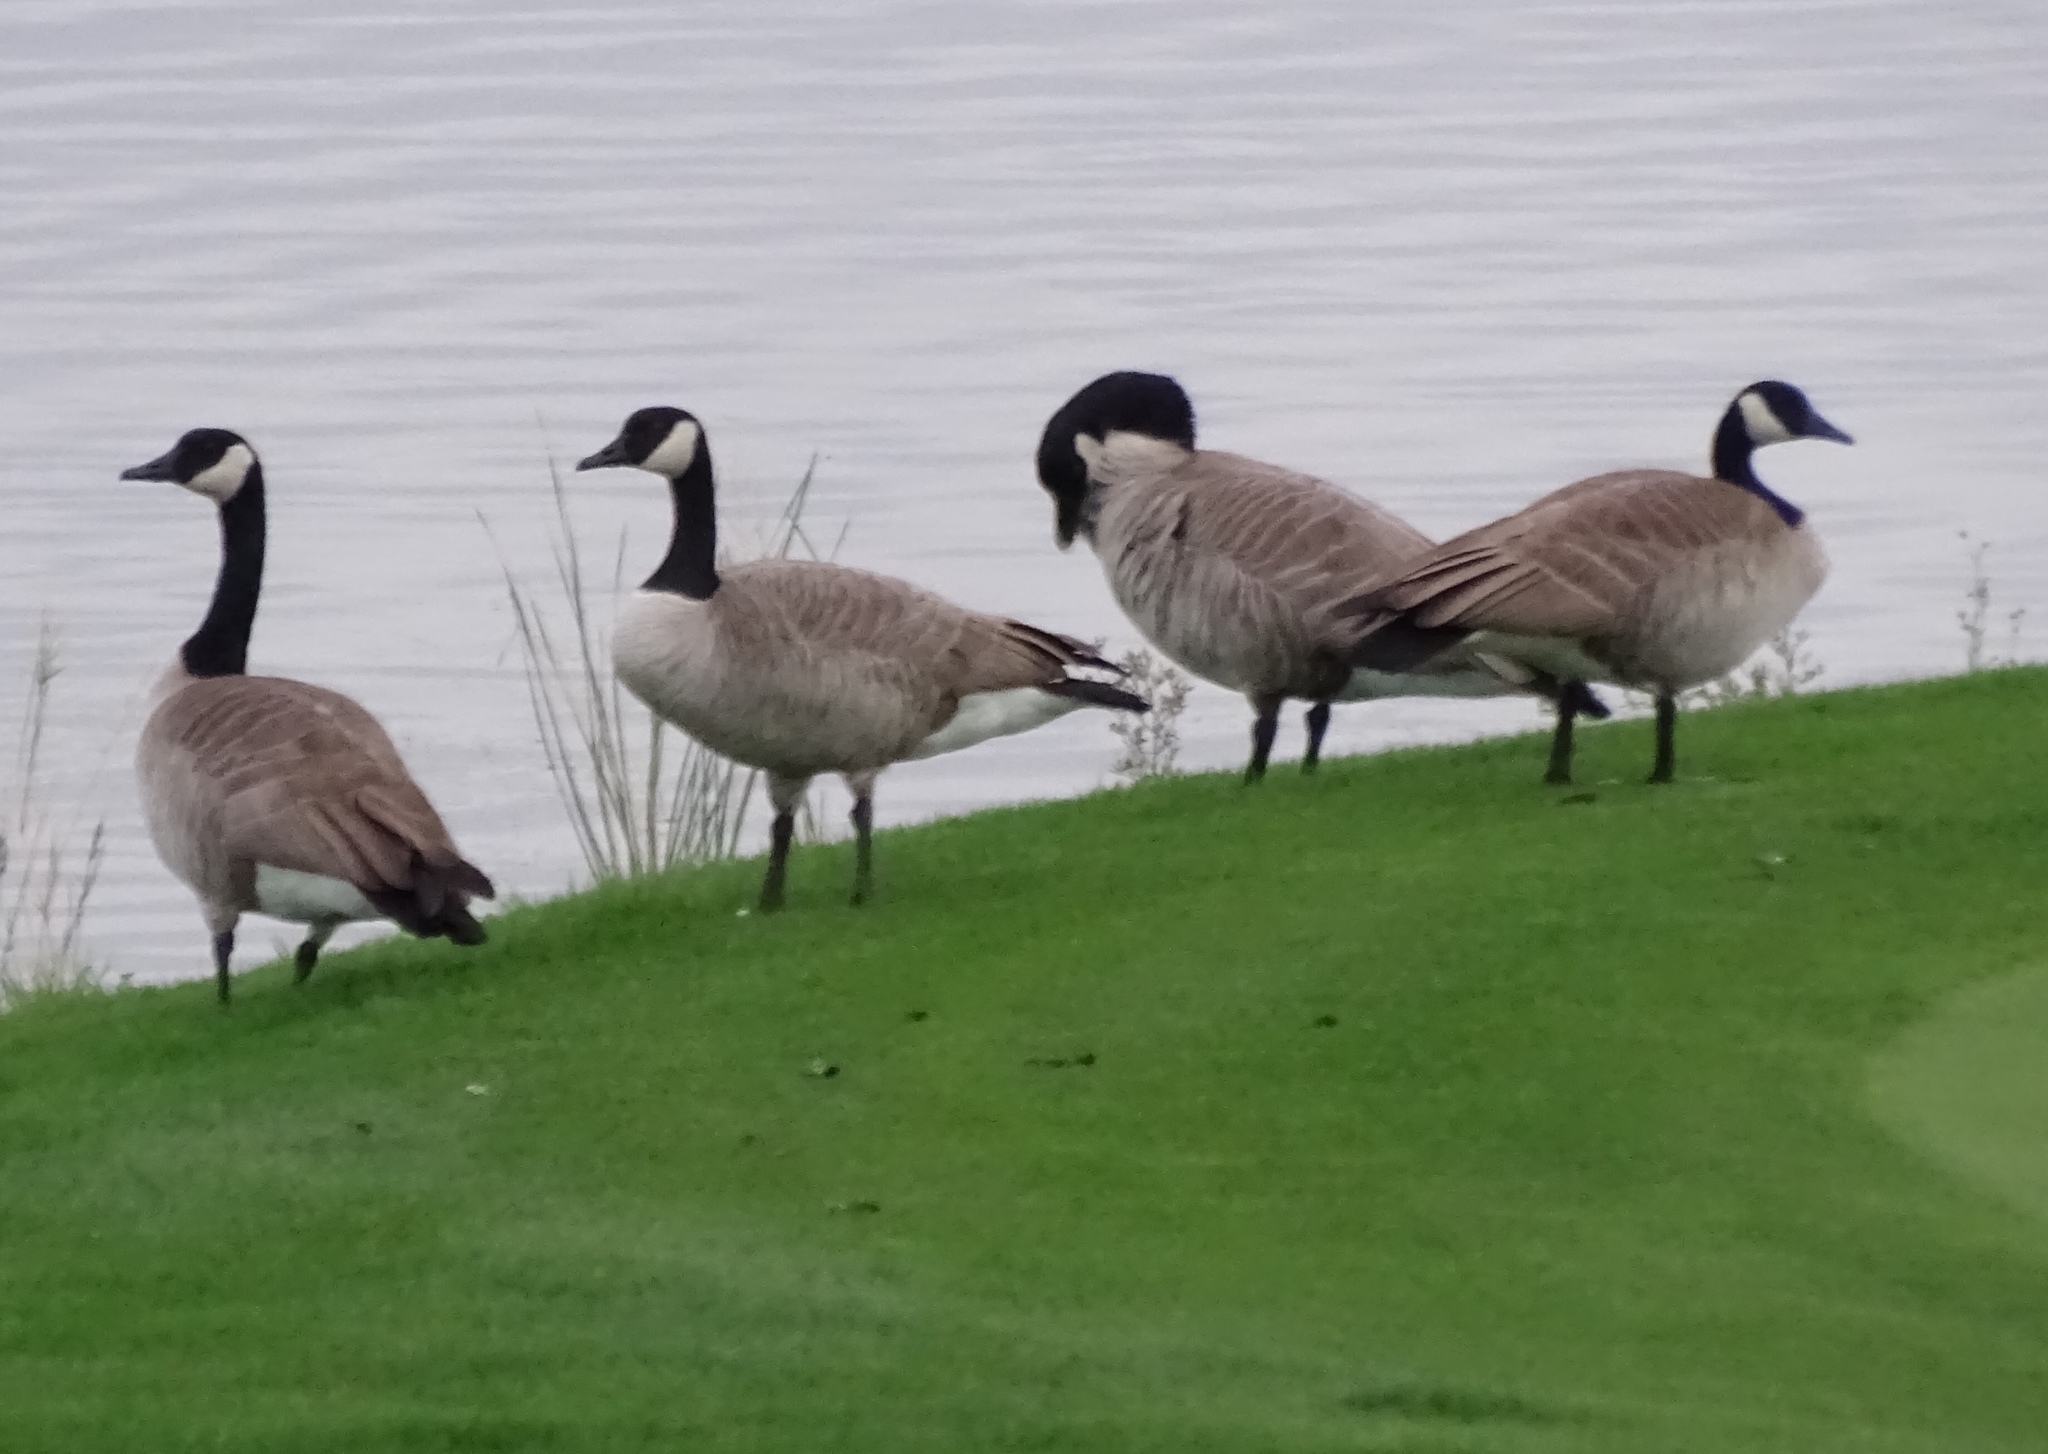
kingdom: Animalia
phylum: Chordata
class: Aves
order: Anseriformes
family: Anatidae
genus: Branta
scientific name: Branta canadensis
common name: Canada goose
